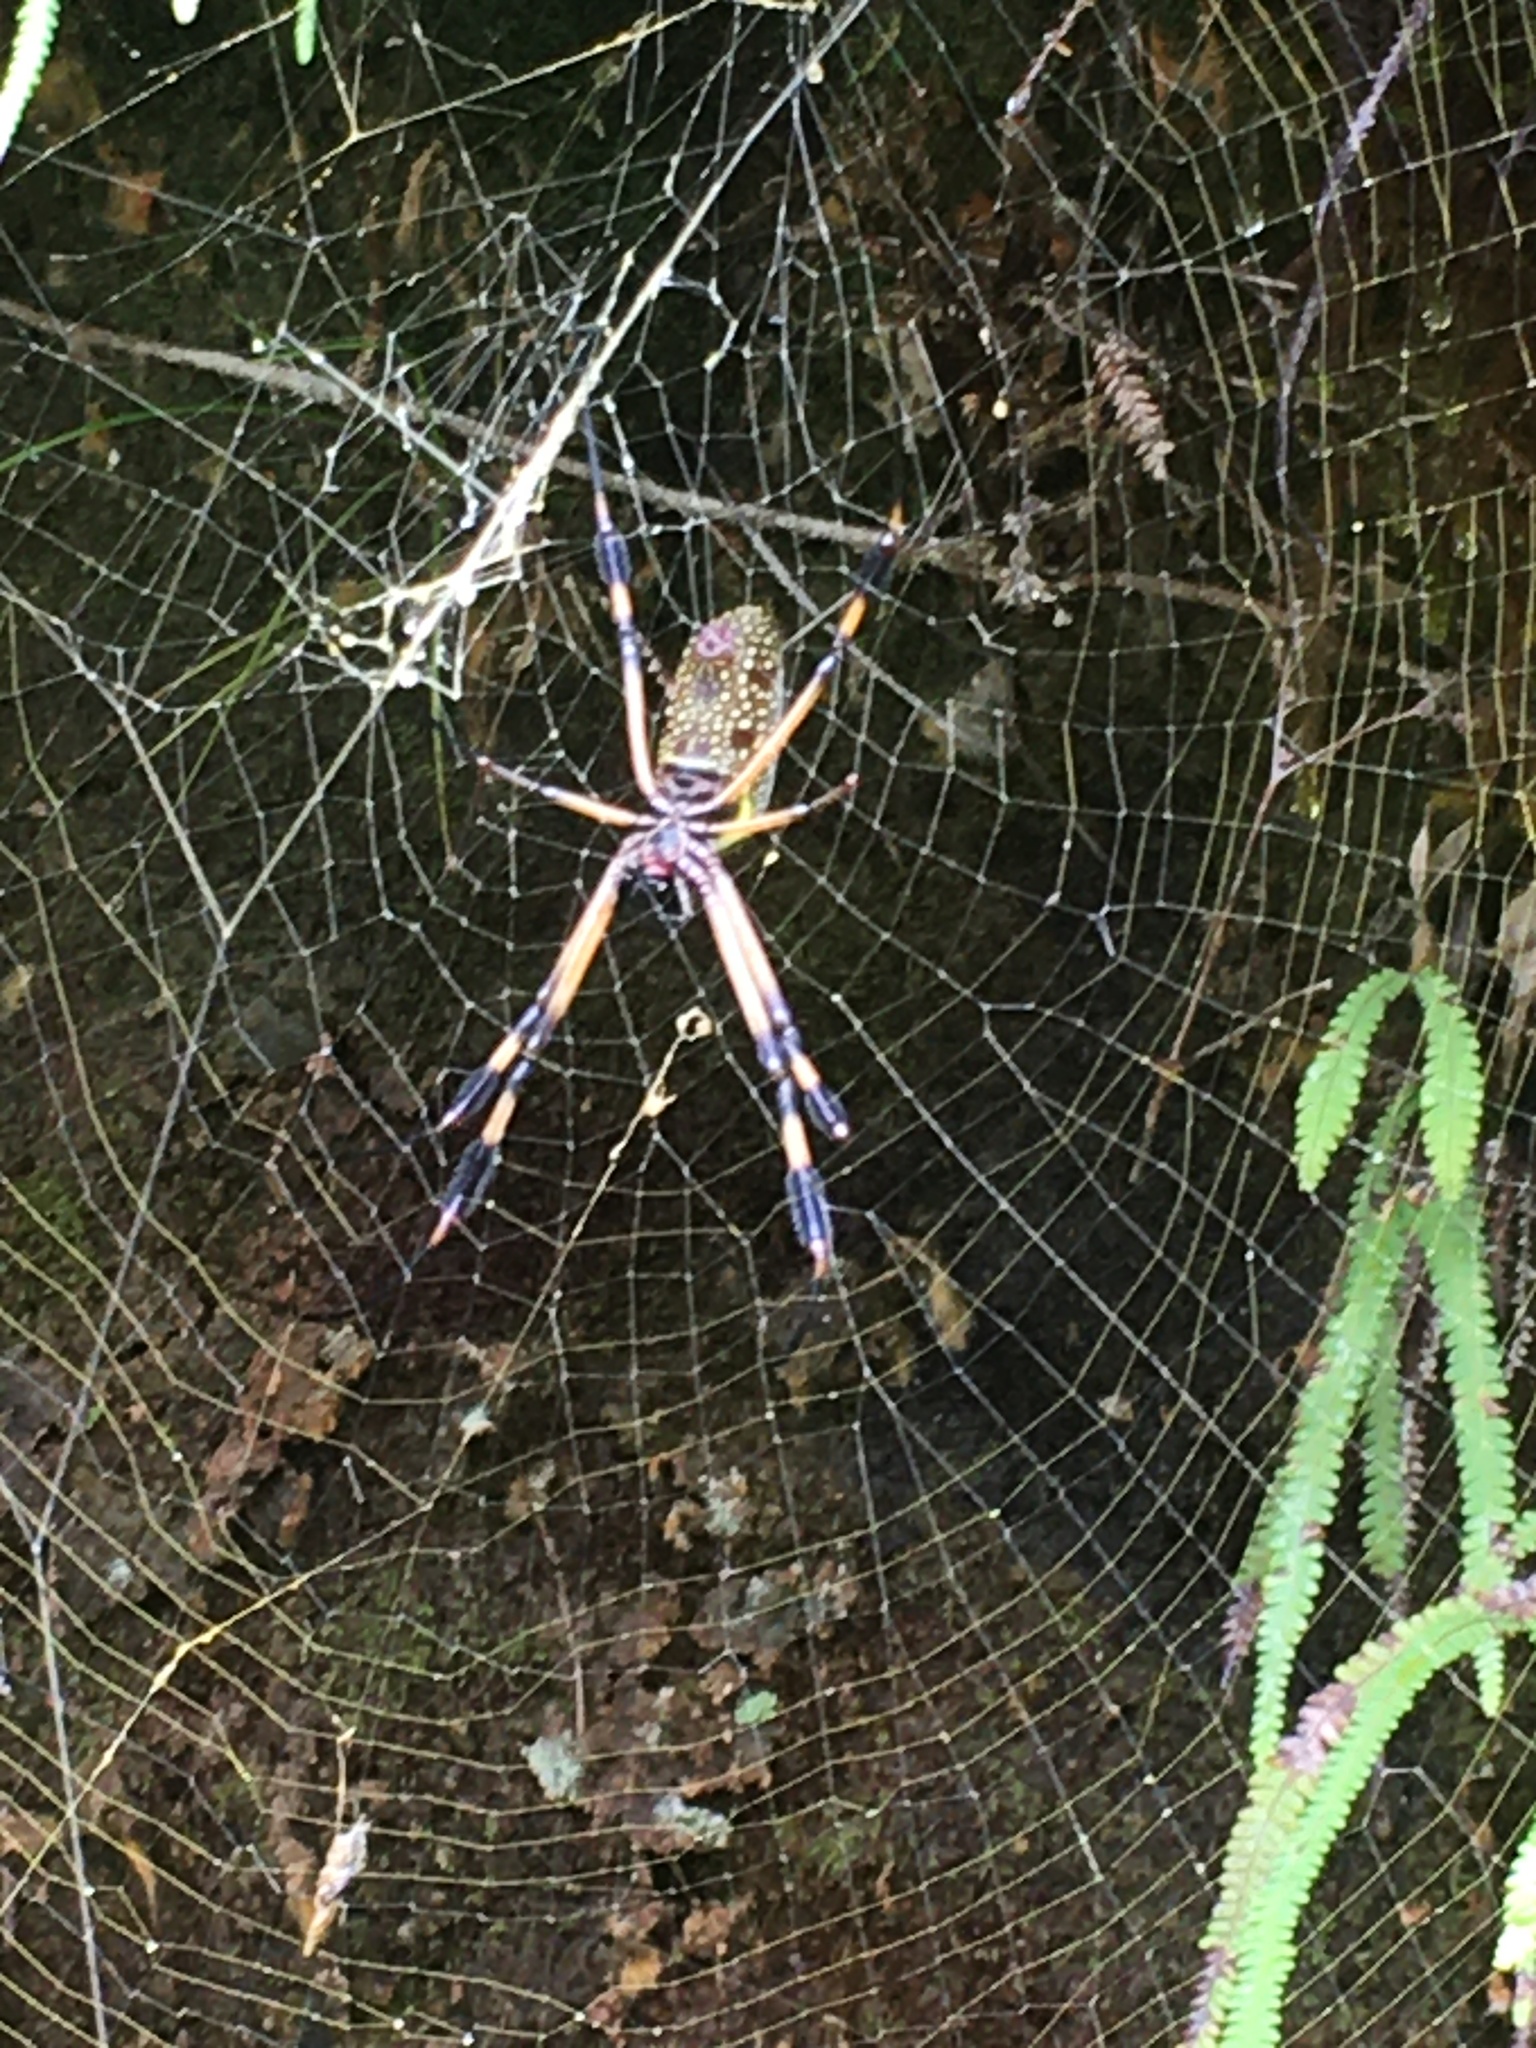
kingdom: Animalia
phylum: Arthropoda
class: Arachnida
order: Araneae
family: Araneidae
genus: Trichonephila
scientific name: Trichonephila clavipes
